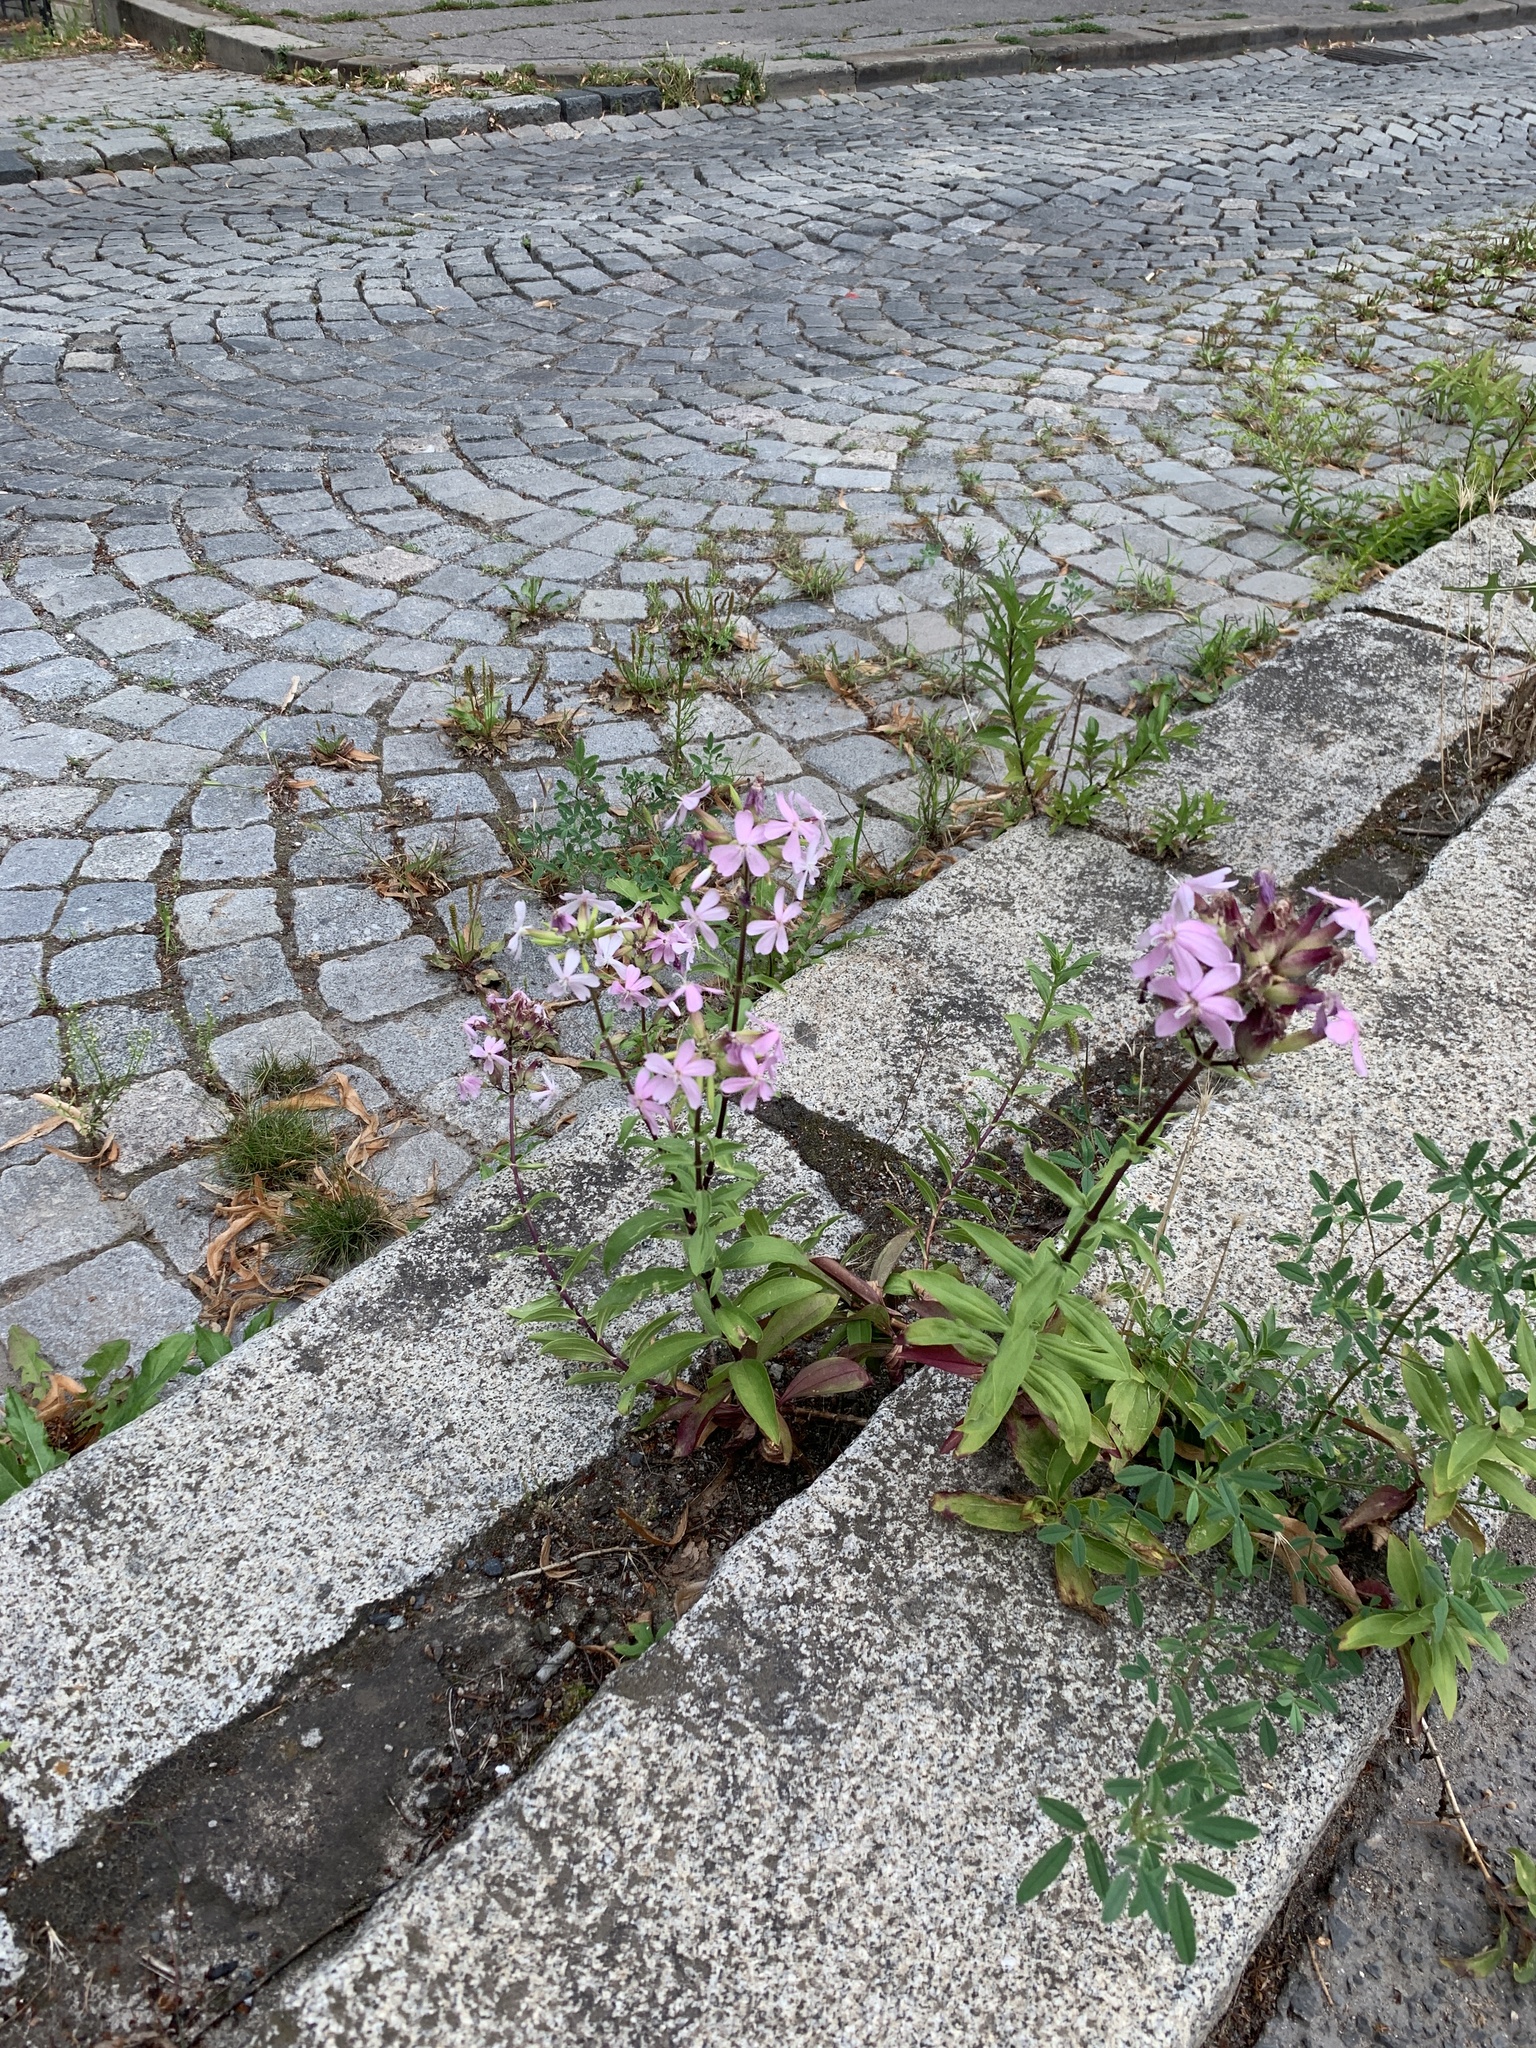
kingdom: Plantae
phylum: Tracheophyta
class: Magnoliopsida
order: Caryophyllales
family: Caryophyllaceae
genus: Saponaria
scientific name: Saponaria officinalis
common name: Soapwort
